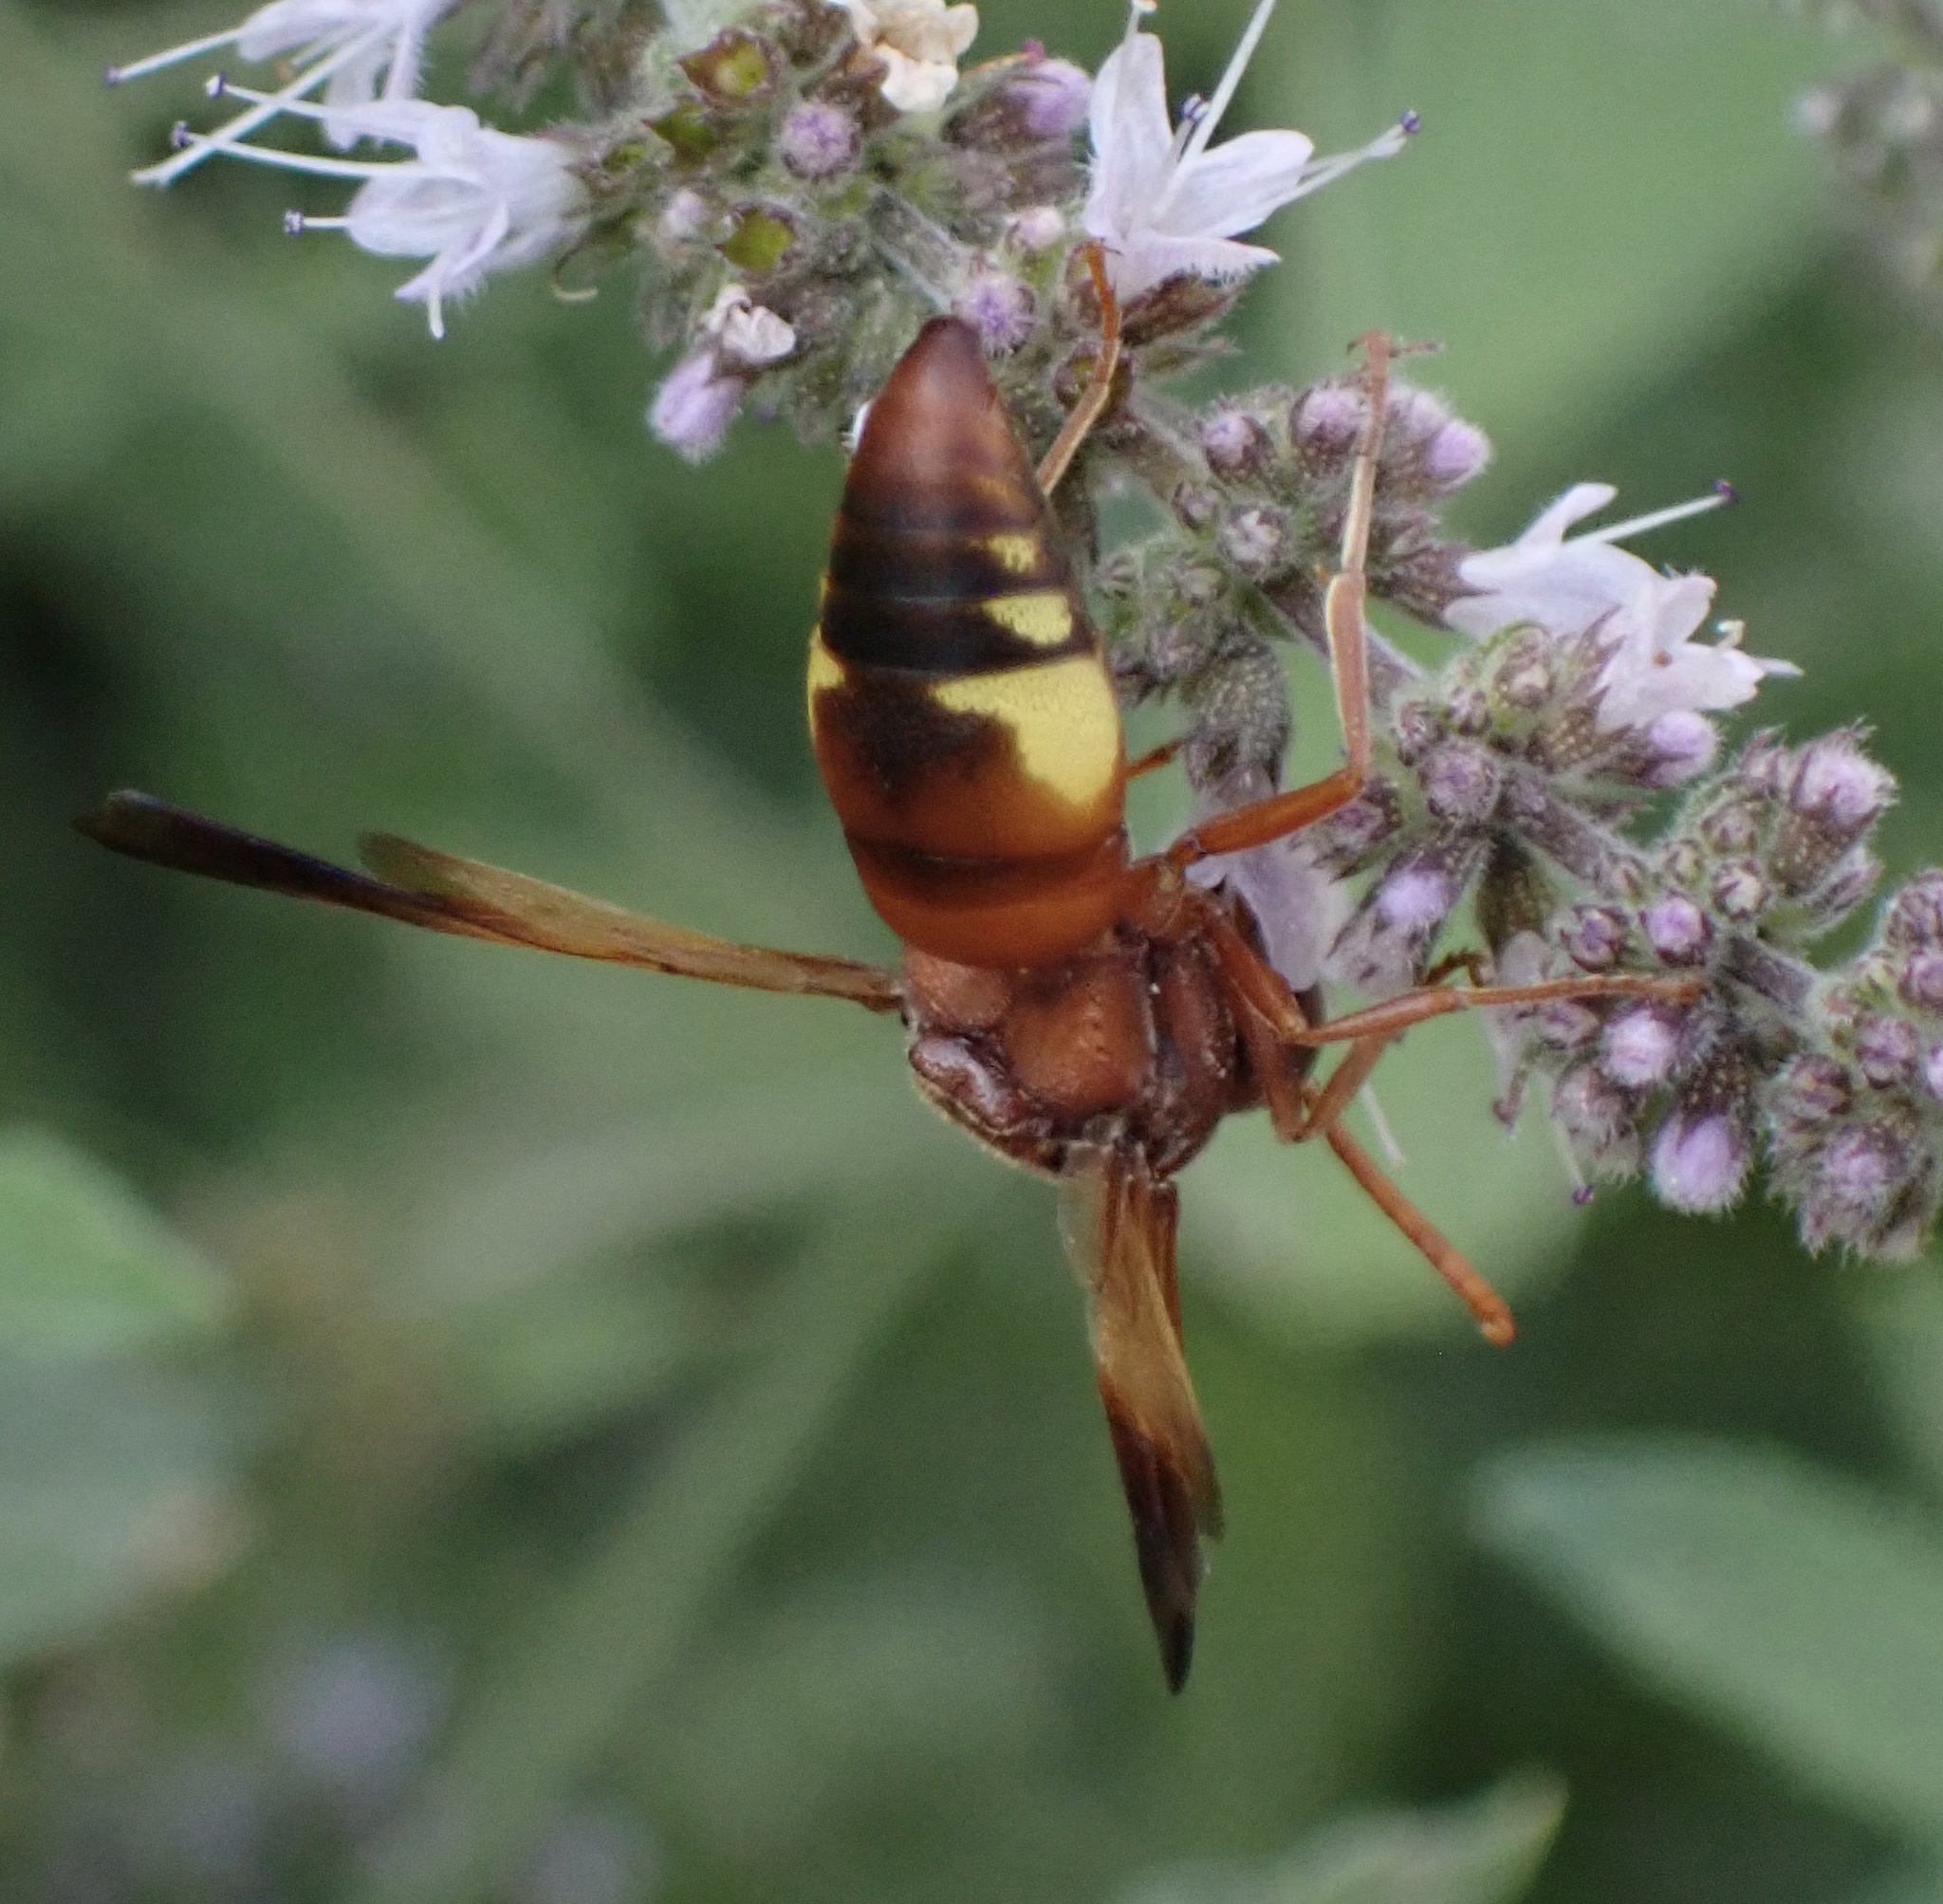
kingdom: Animalia
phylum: Arthropoda
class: Insecta
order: Hymenoptera
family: Eumenidae
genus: Rhynchium
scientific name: Rhynchium oculatum
